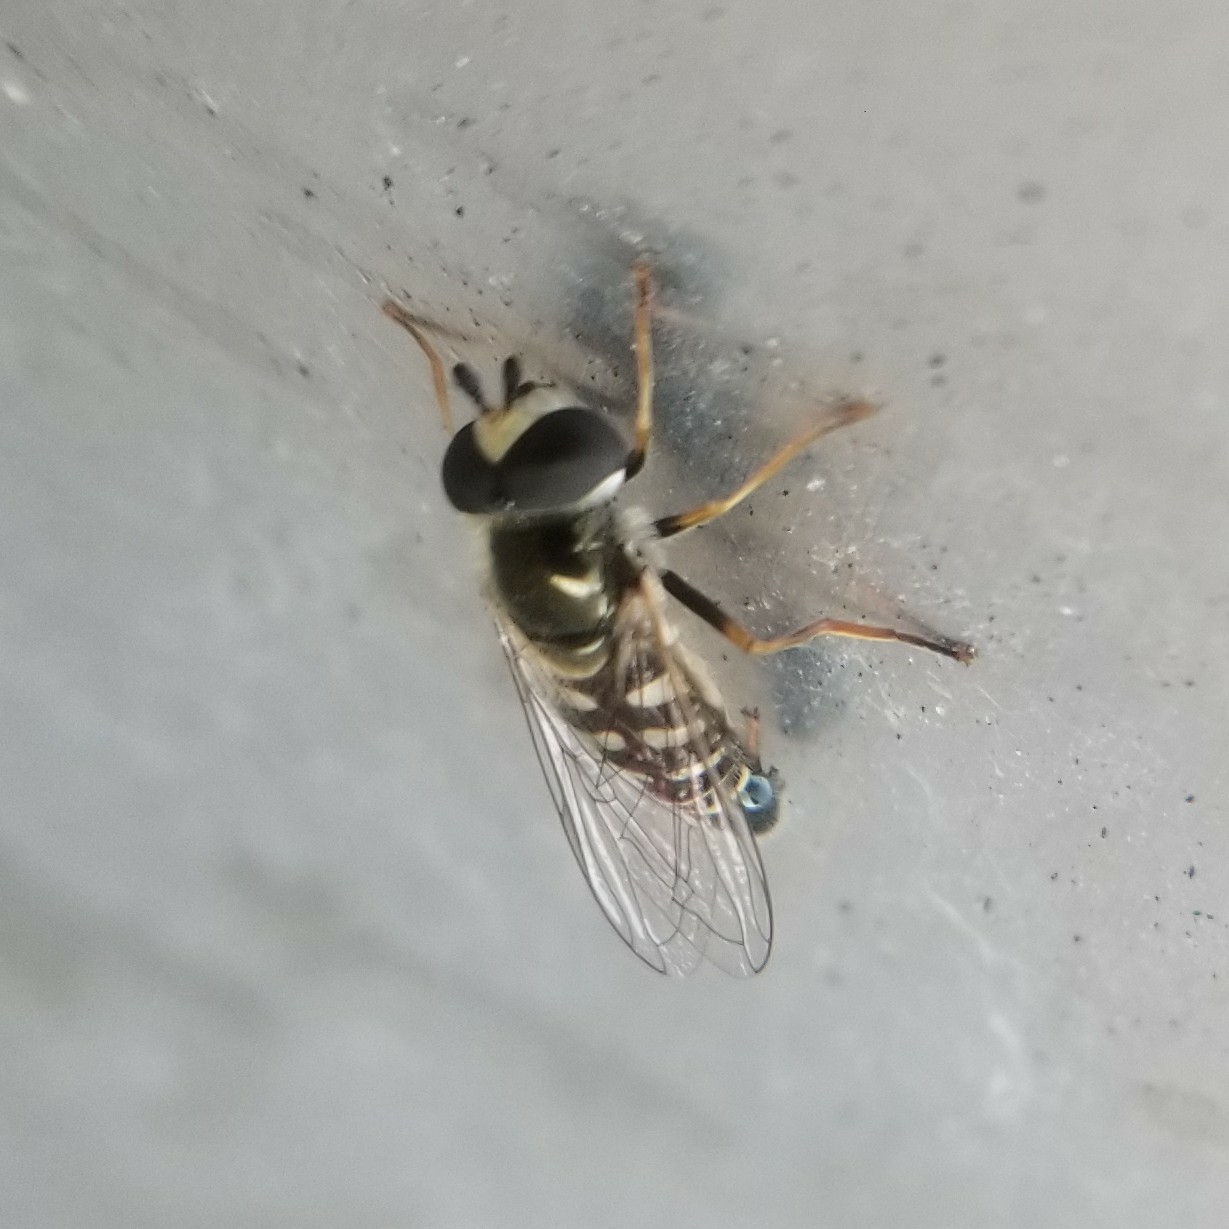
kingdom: Animalia
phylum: Arthropoda
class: Insecta
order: Diptera
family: Syrphidae
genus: Eupeodes
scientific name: Eupeodes volucris
